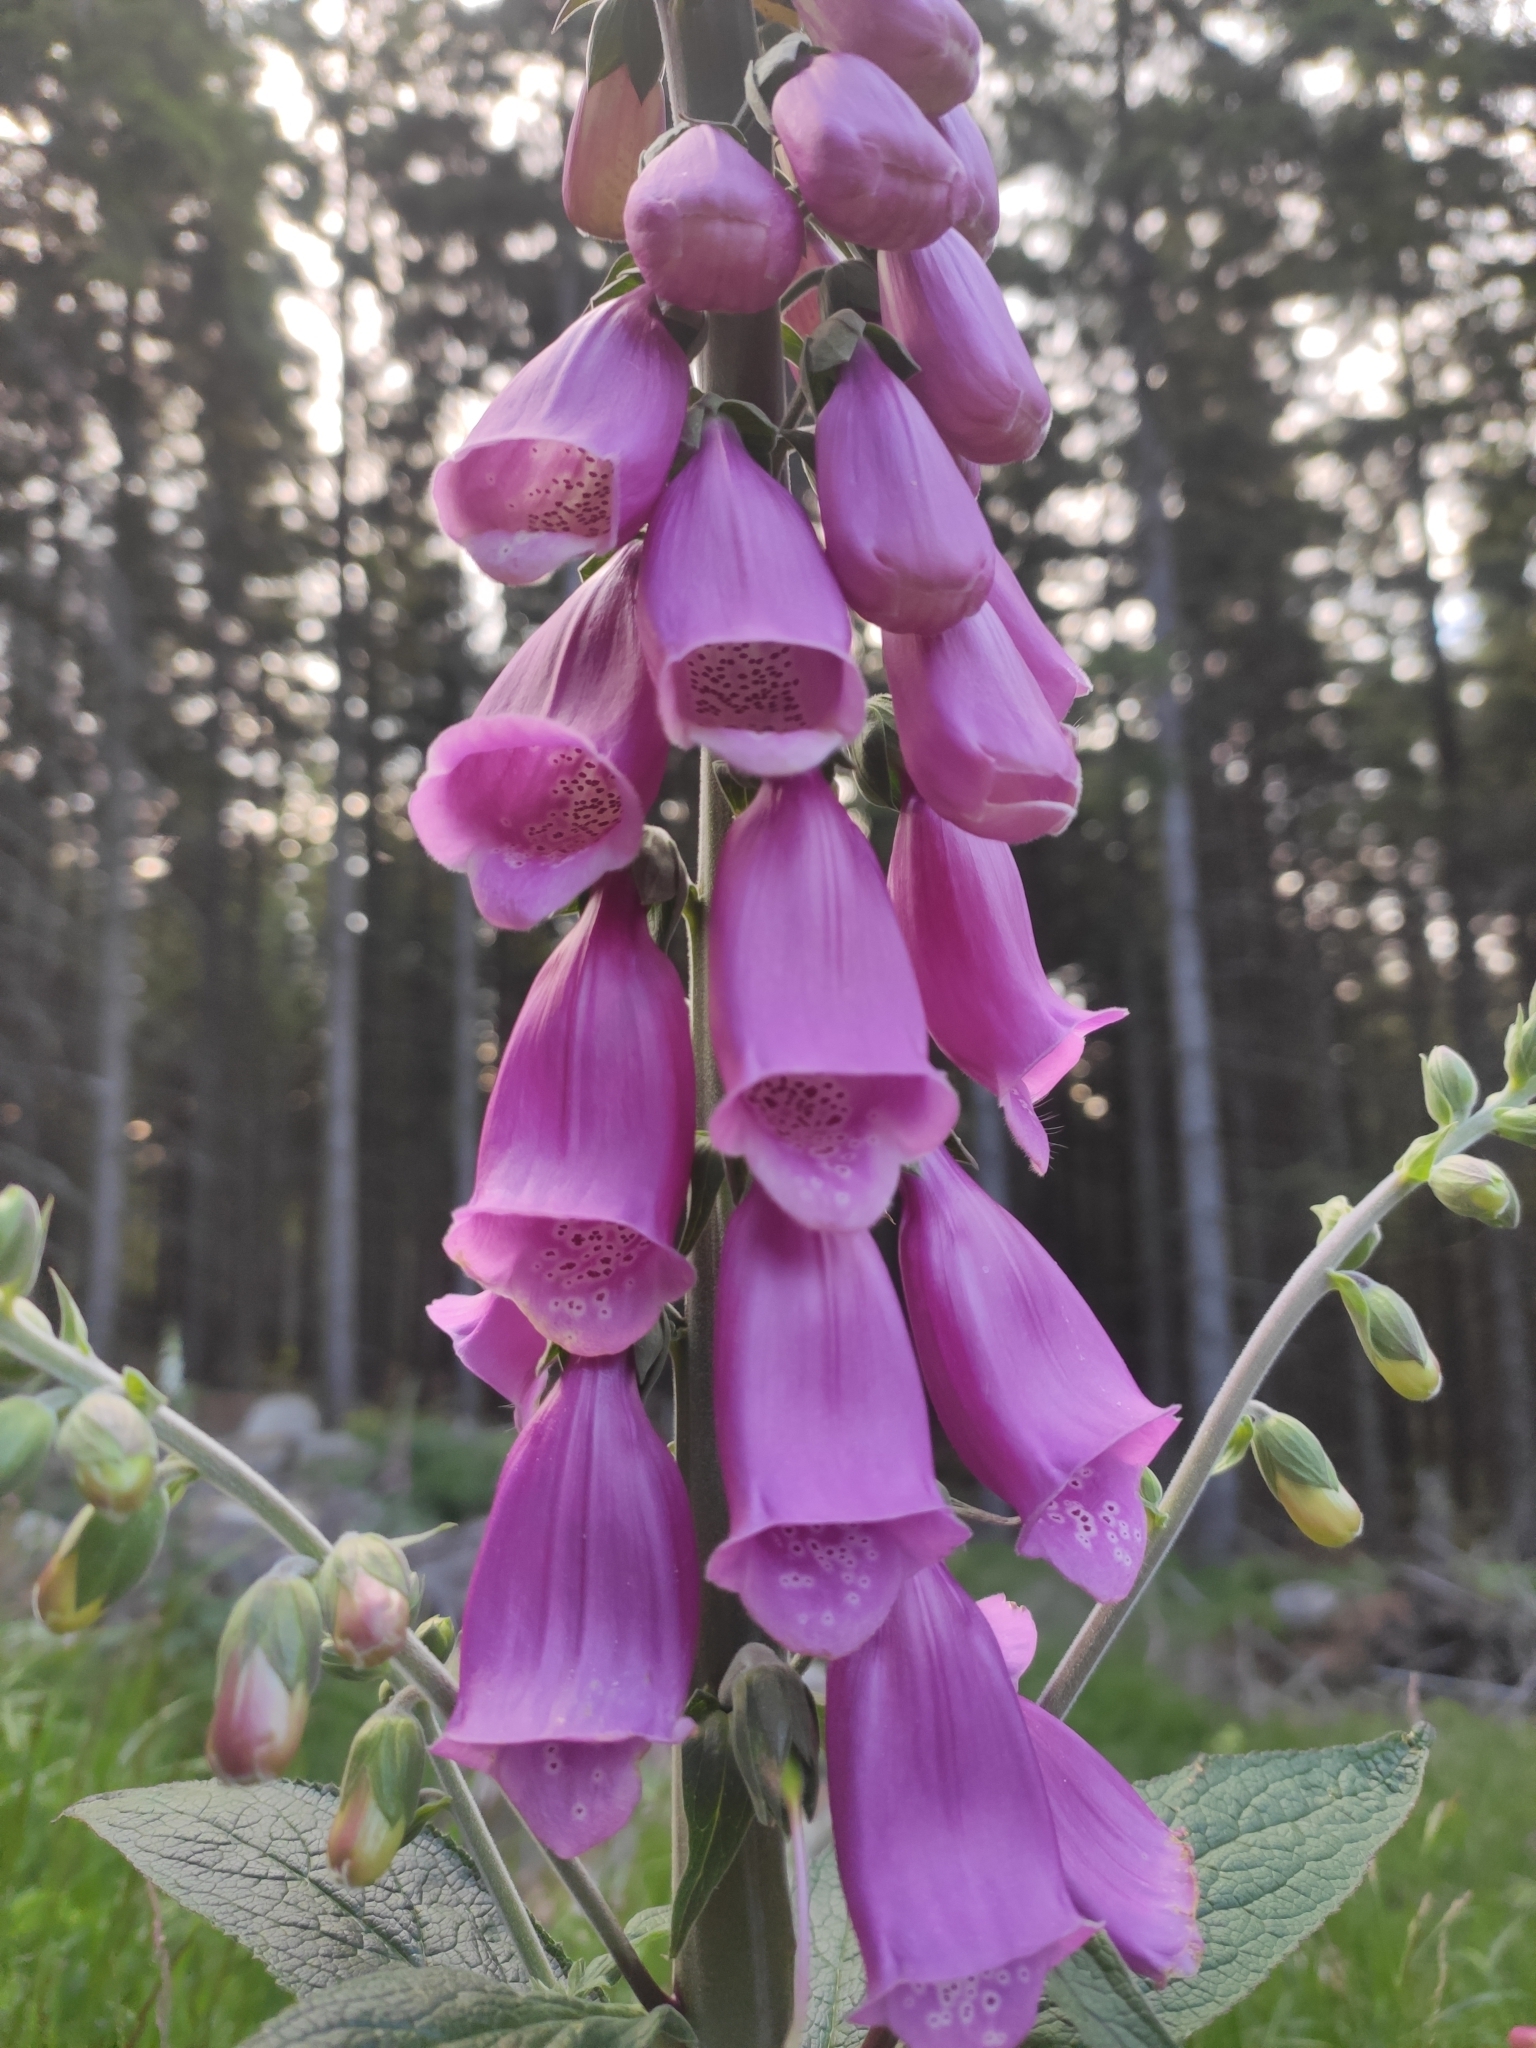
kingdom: Plantae
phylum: Tracheophyta
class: Magnoliopsida
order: Lamiales
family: Plantaginaceae
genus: Digitalis
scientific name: Digitalis purpurea
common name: Foxglove
